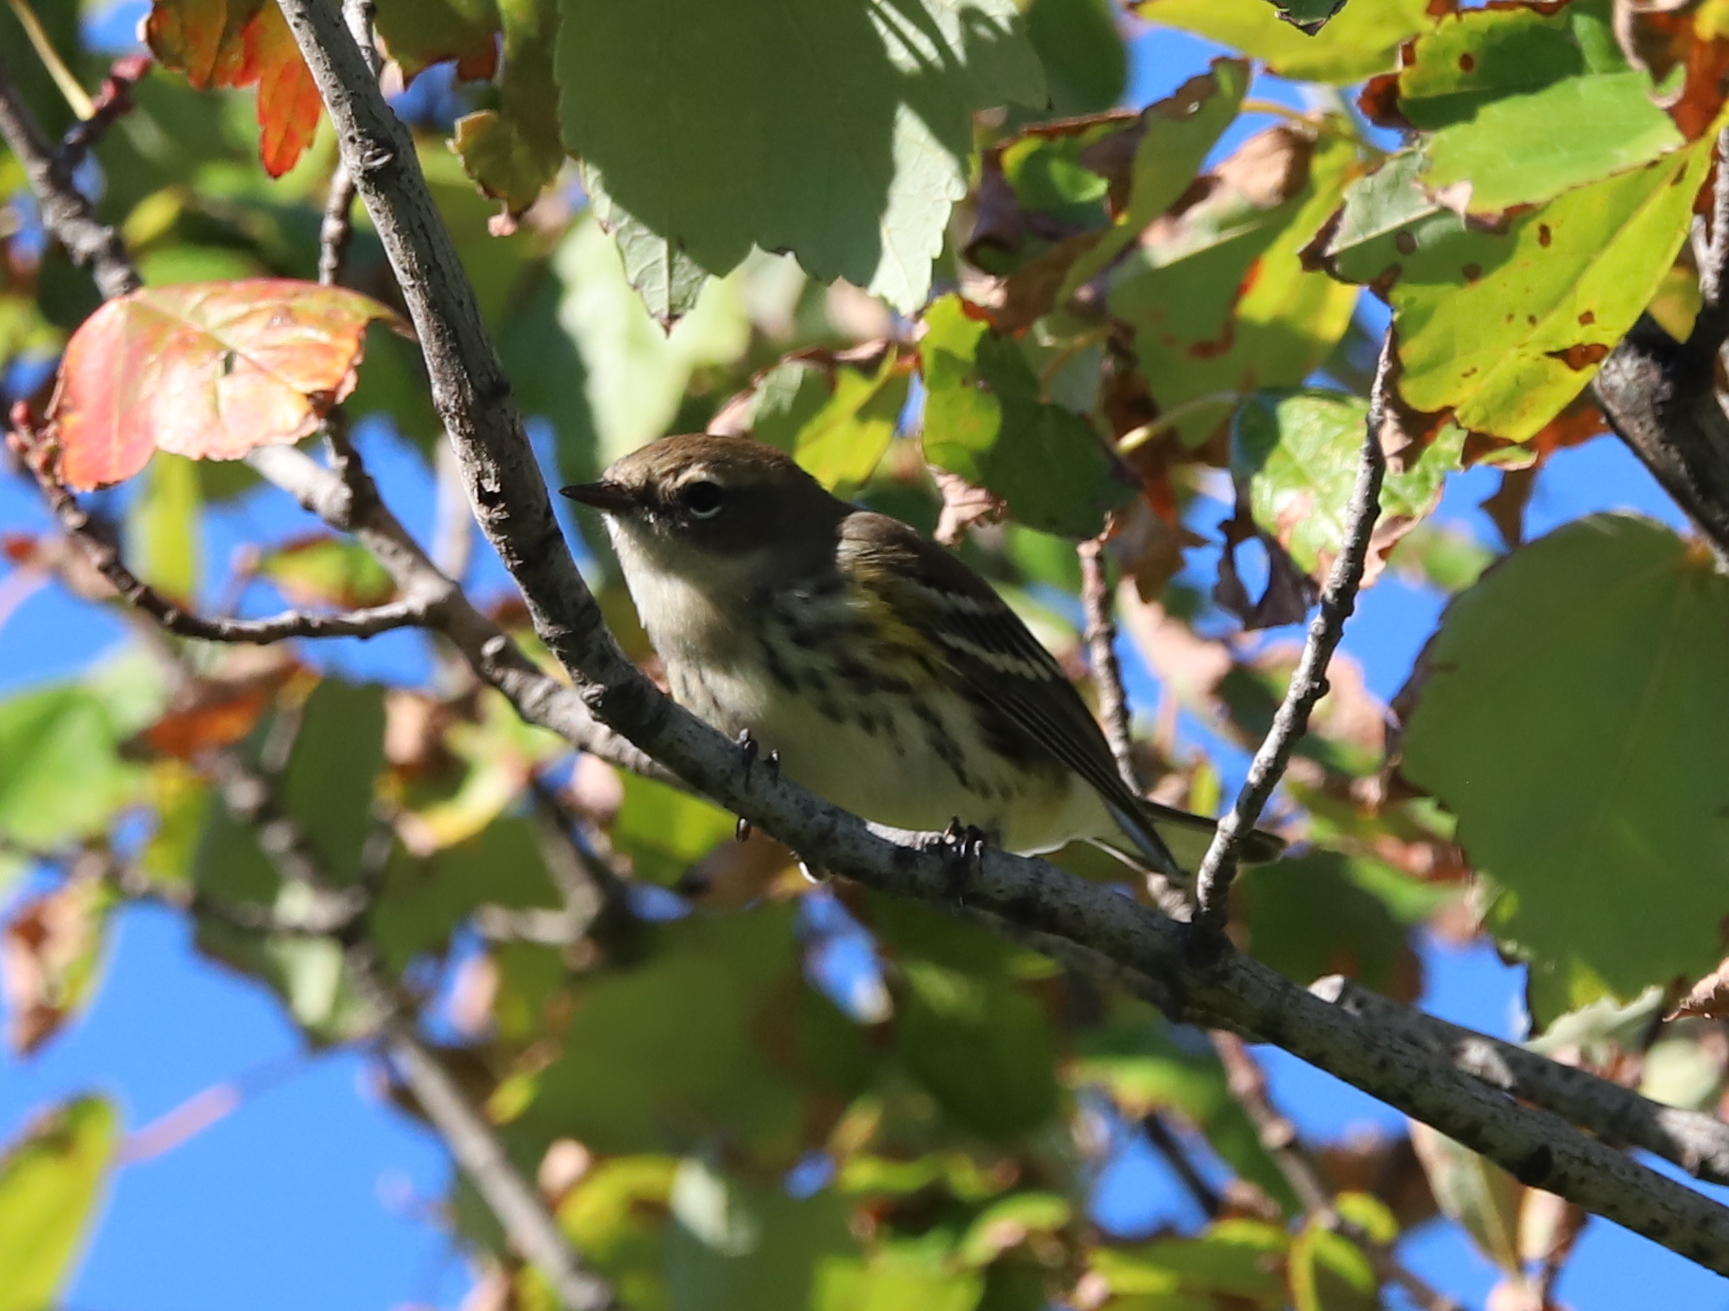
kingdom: Animalia
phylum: Chordata
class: Aves
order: Passeriformes
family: Parulidae
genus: Setophaga
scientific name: Setophaga coronata
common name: Myrtle warbler
